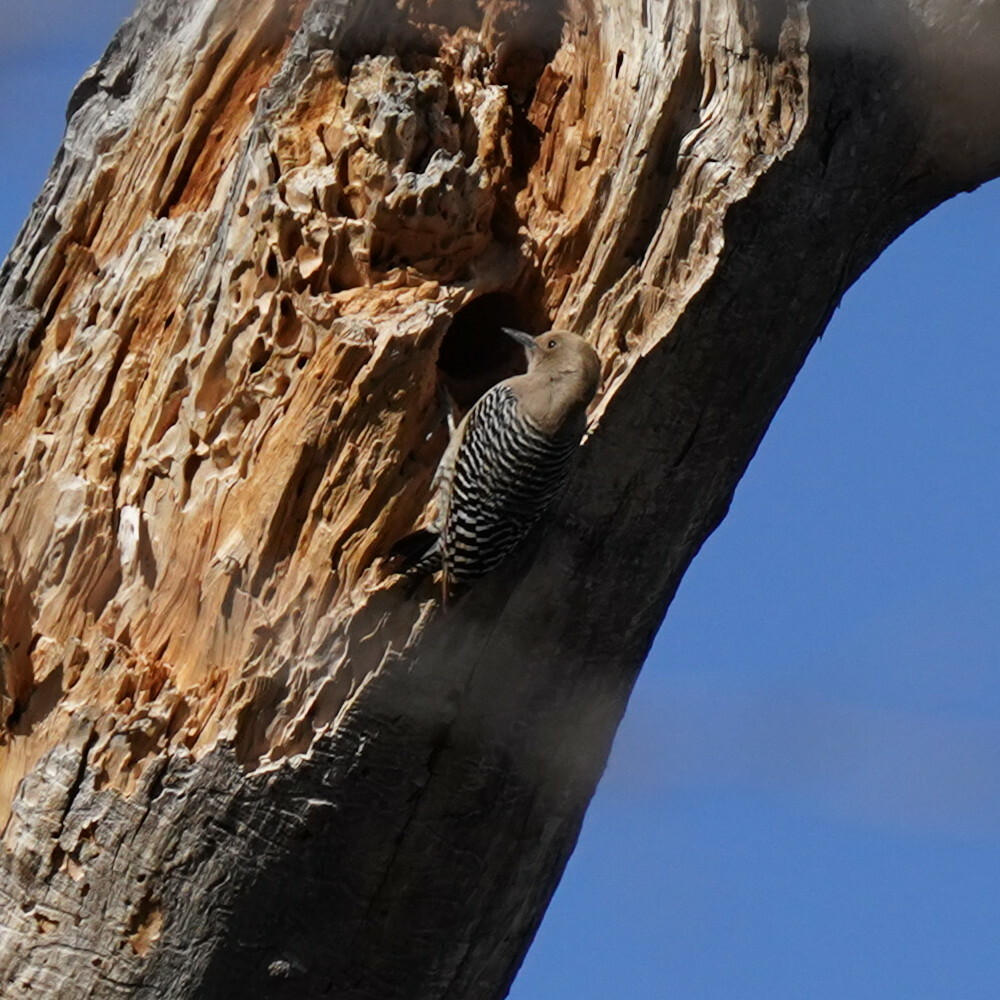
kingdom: Animalia
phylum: Chordata
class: Aves
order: Piciformes
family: Picidae
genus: Melanerpes
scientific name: Melanerpes uropygialis
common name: Gila woodpecker
